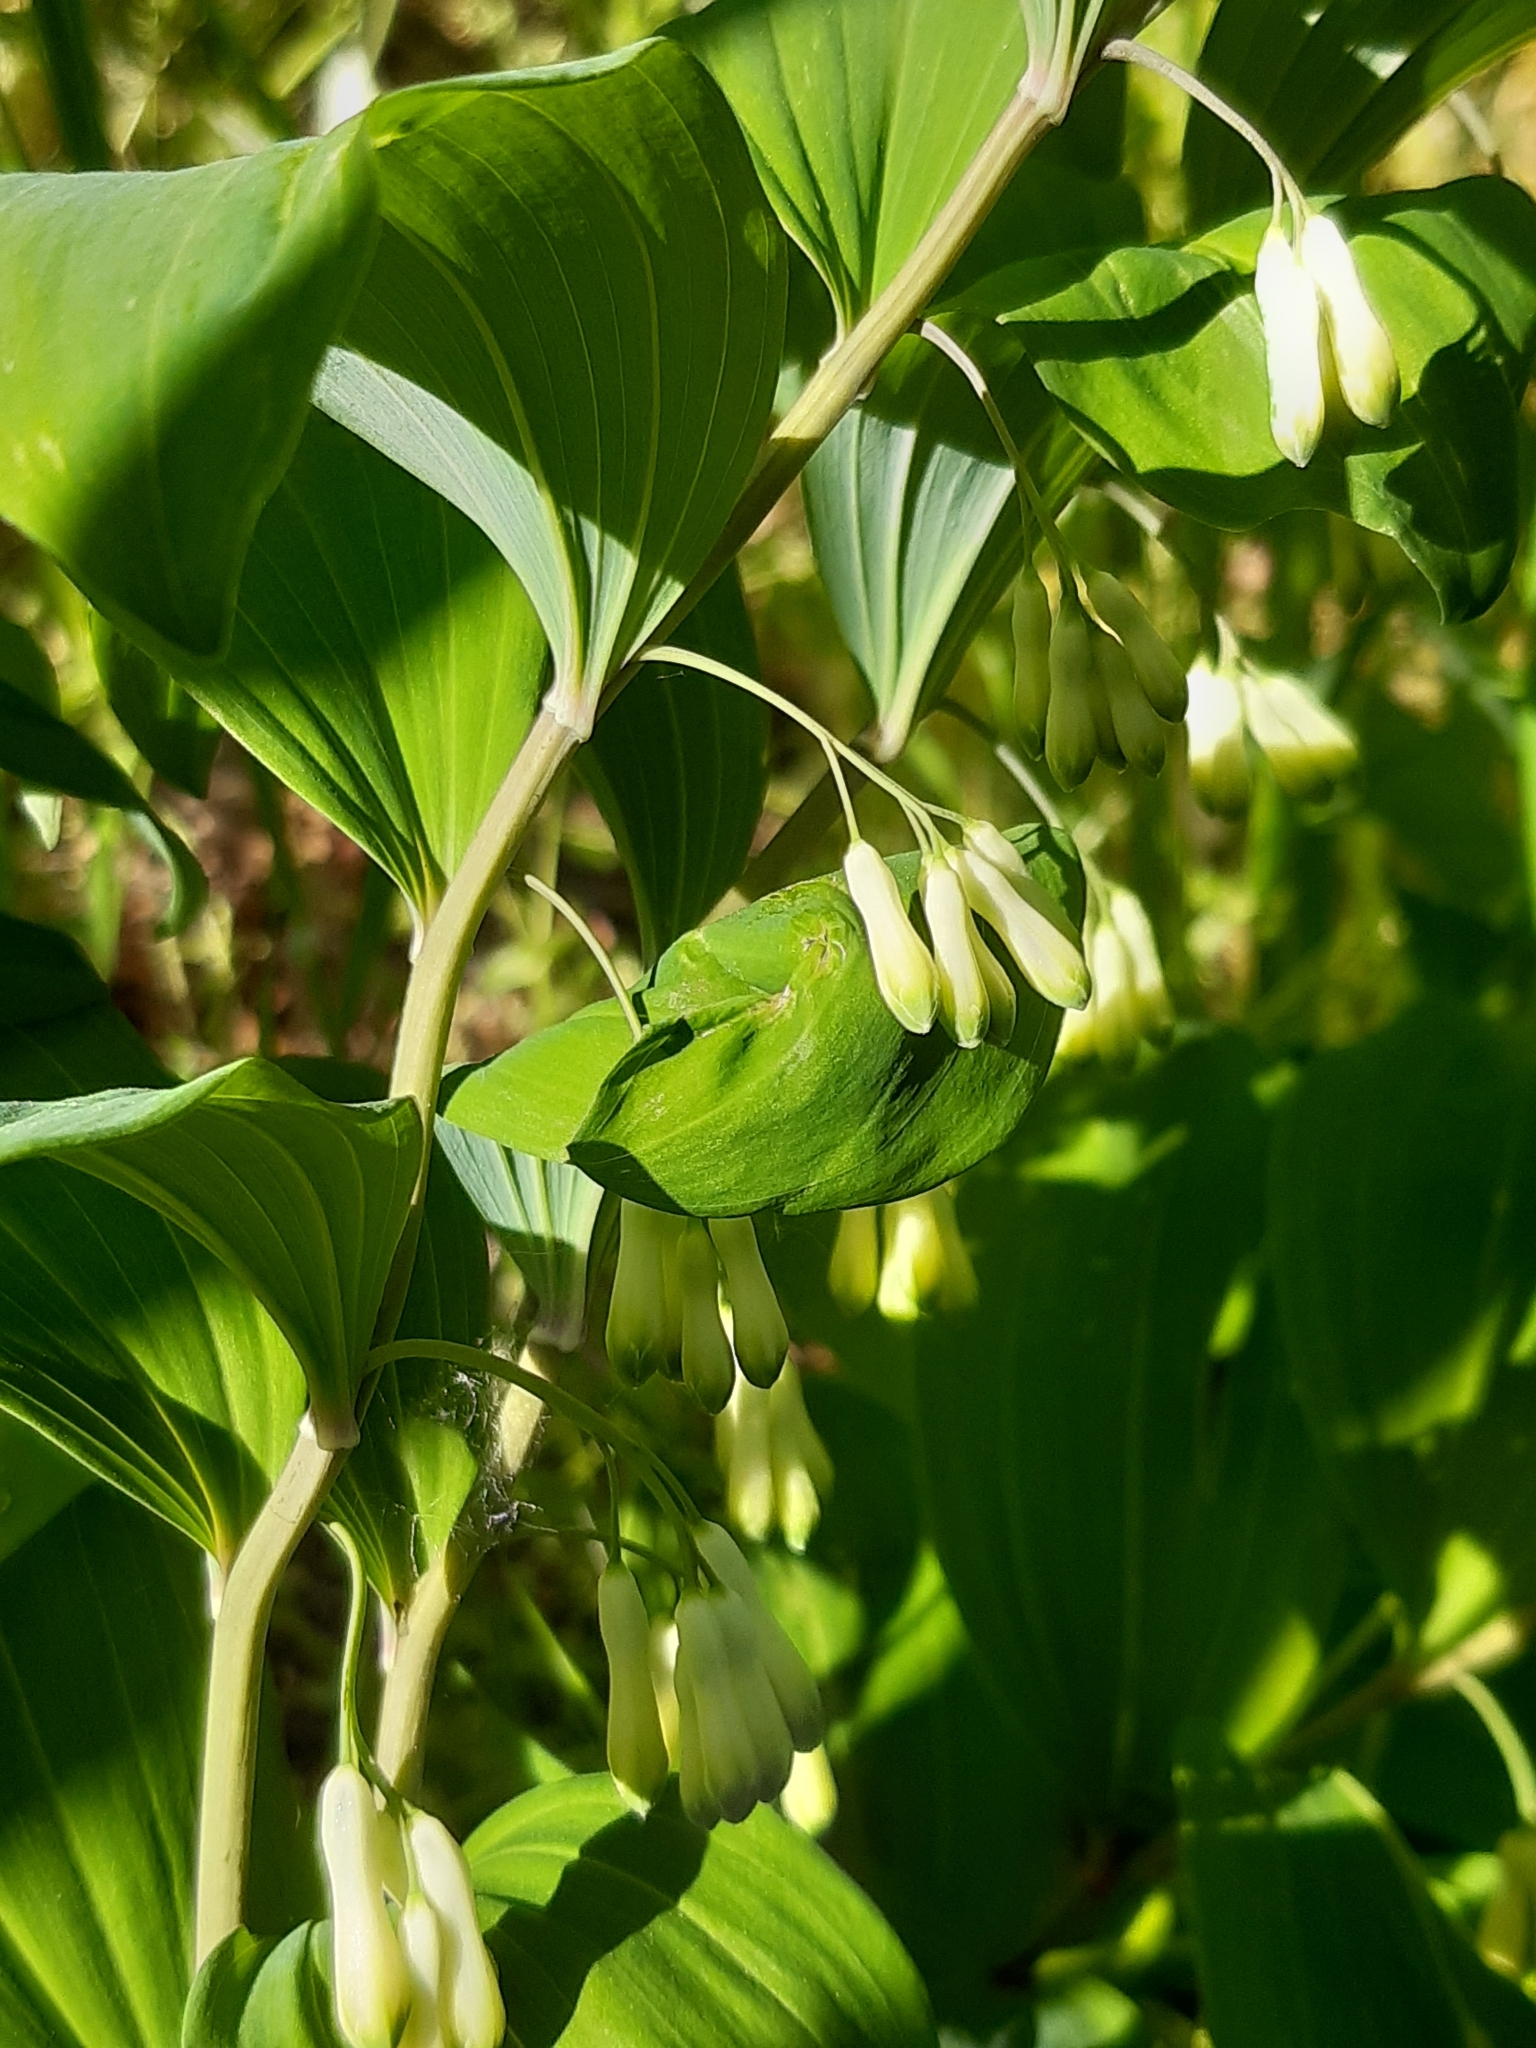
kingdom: Plantae
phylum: Tracheophyta
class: Liliopsida
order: Asparagales
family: Asparagaceae
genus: Polygonatum
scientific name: Polygonatum multiflorum
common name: Solomon's-seal
